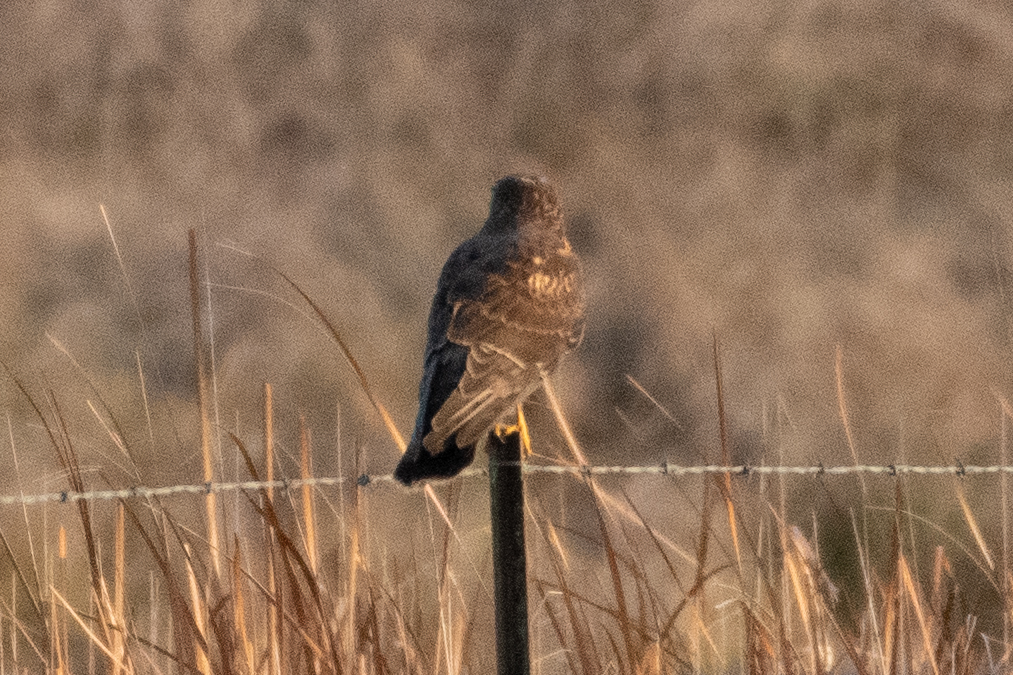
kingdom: Animalia
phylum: Chordata
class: Aves
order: Accipitriformes
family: Accipitridae
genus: Circus
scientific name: Circus cyaneus
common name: Hen harrier
